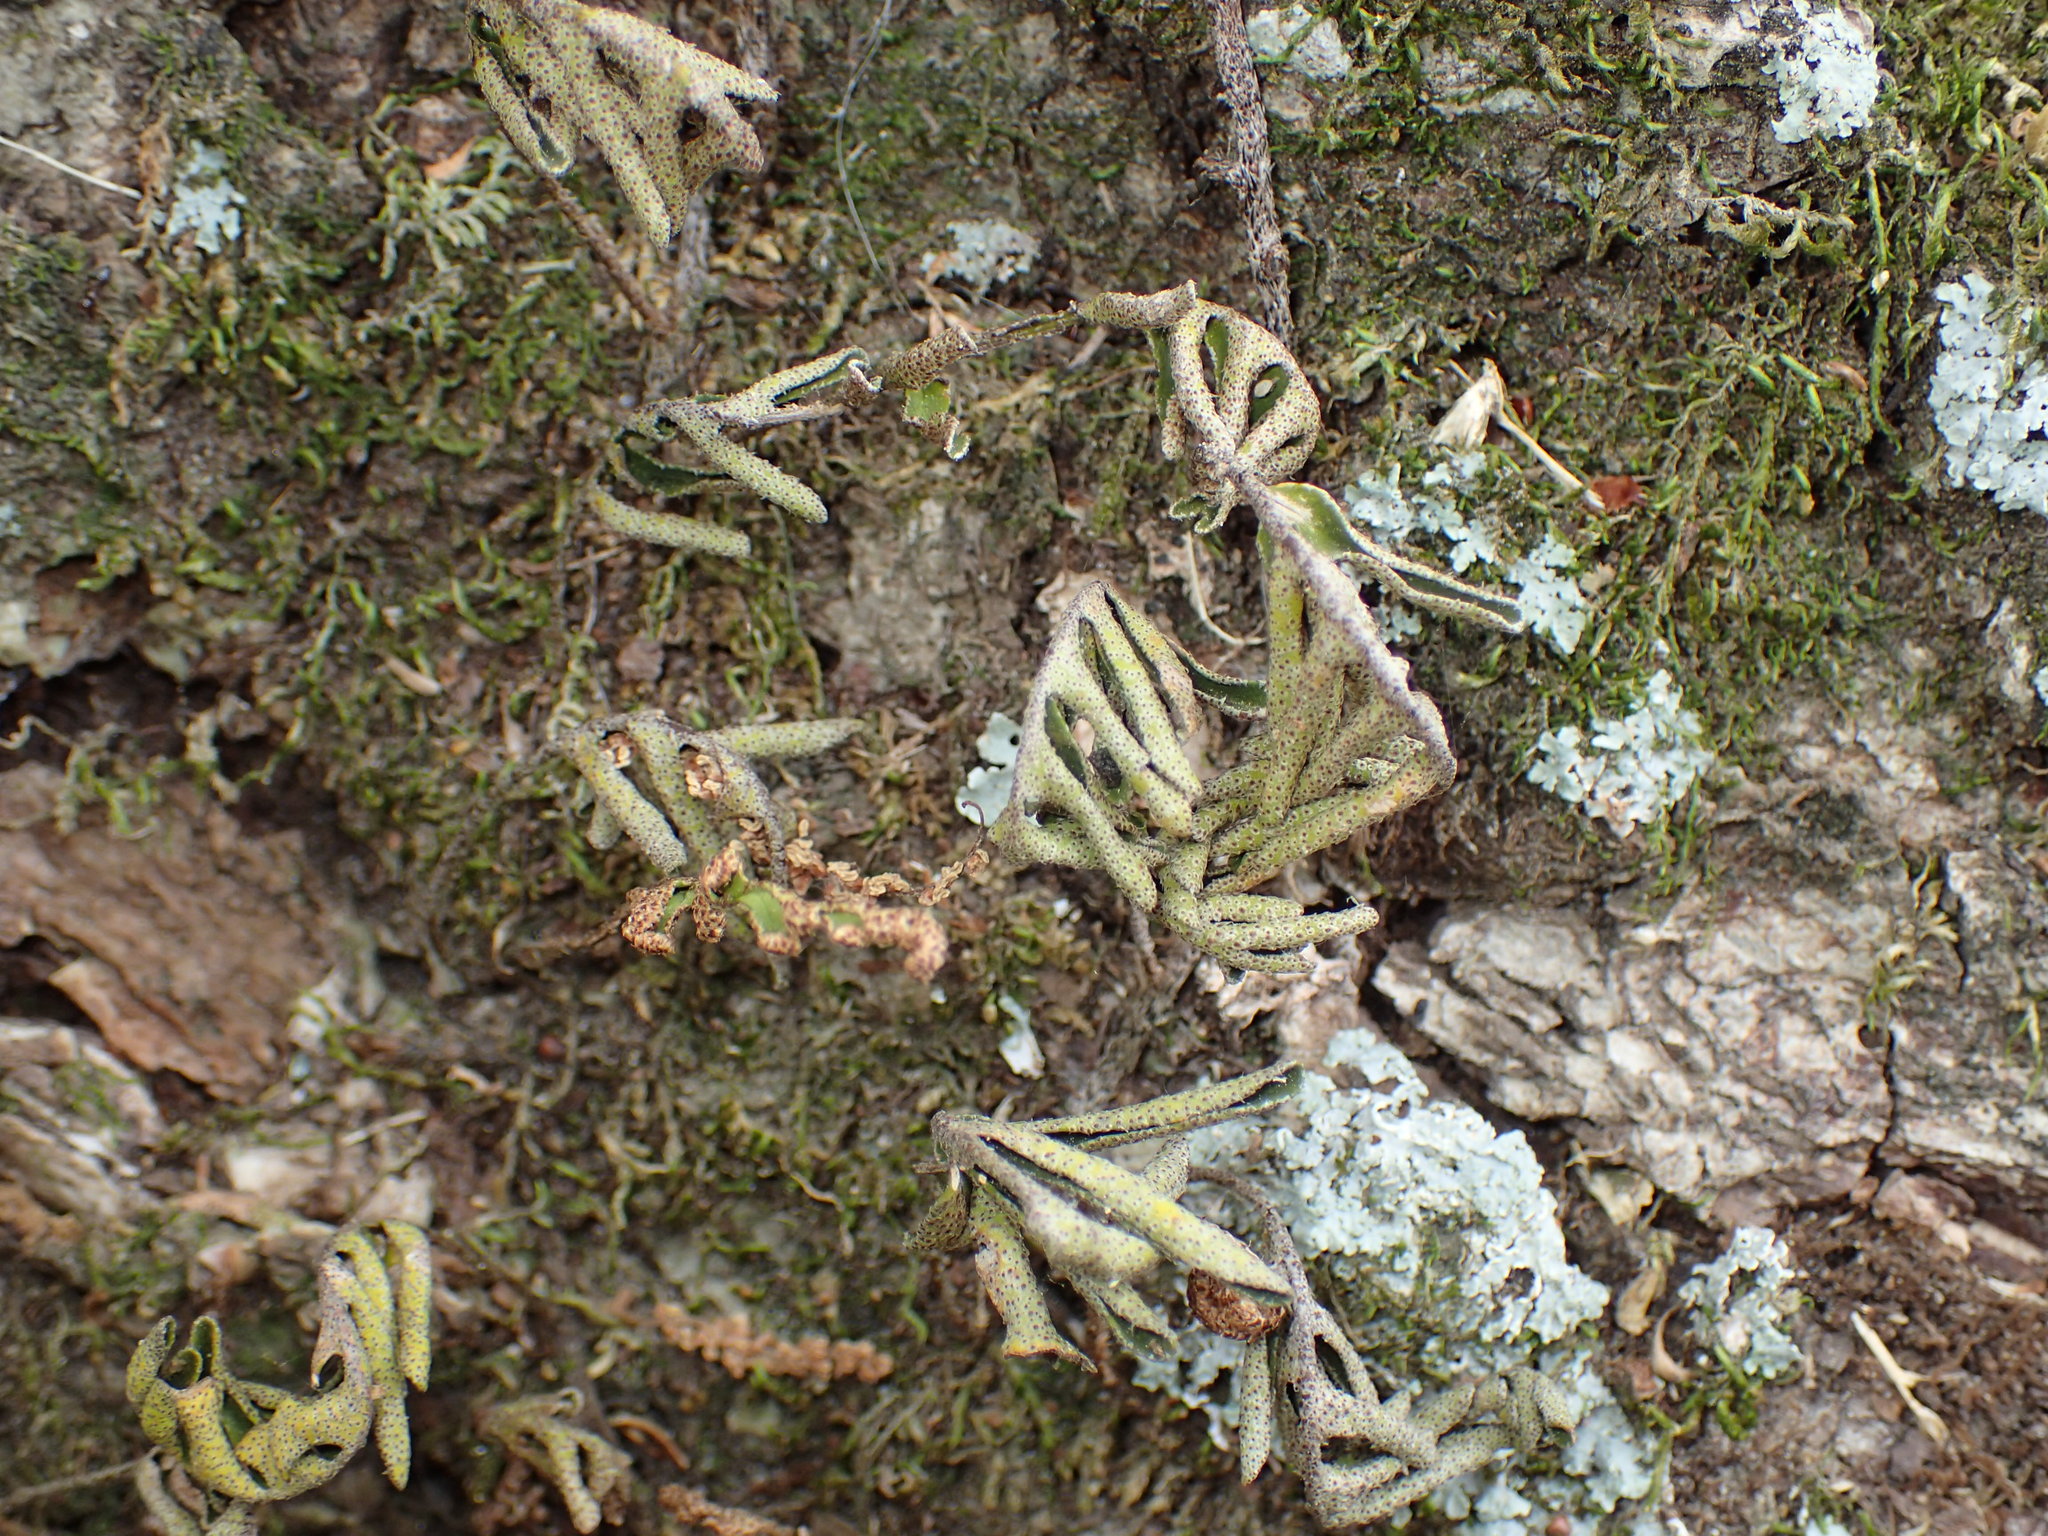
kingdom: Plantae
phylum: Tracheophyta
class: Polypodiopsida
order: Polypodiales
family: Polypodiaceae
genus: Pleopeltis
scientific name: Pleopeltis michauxiana
